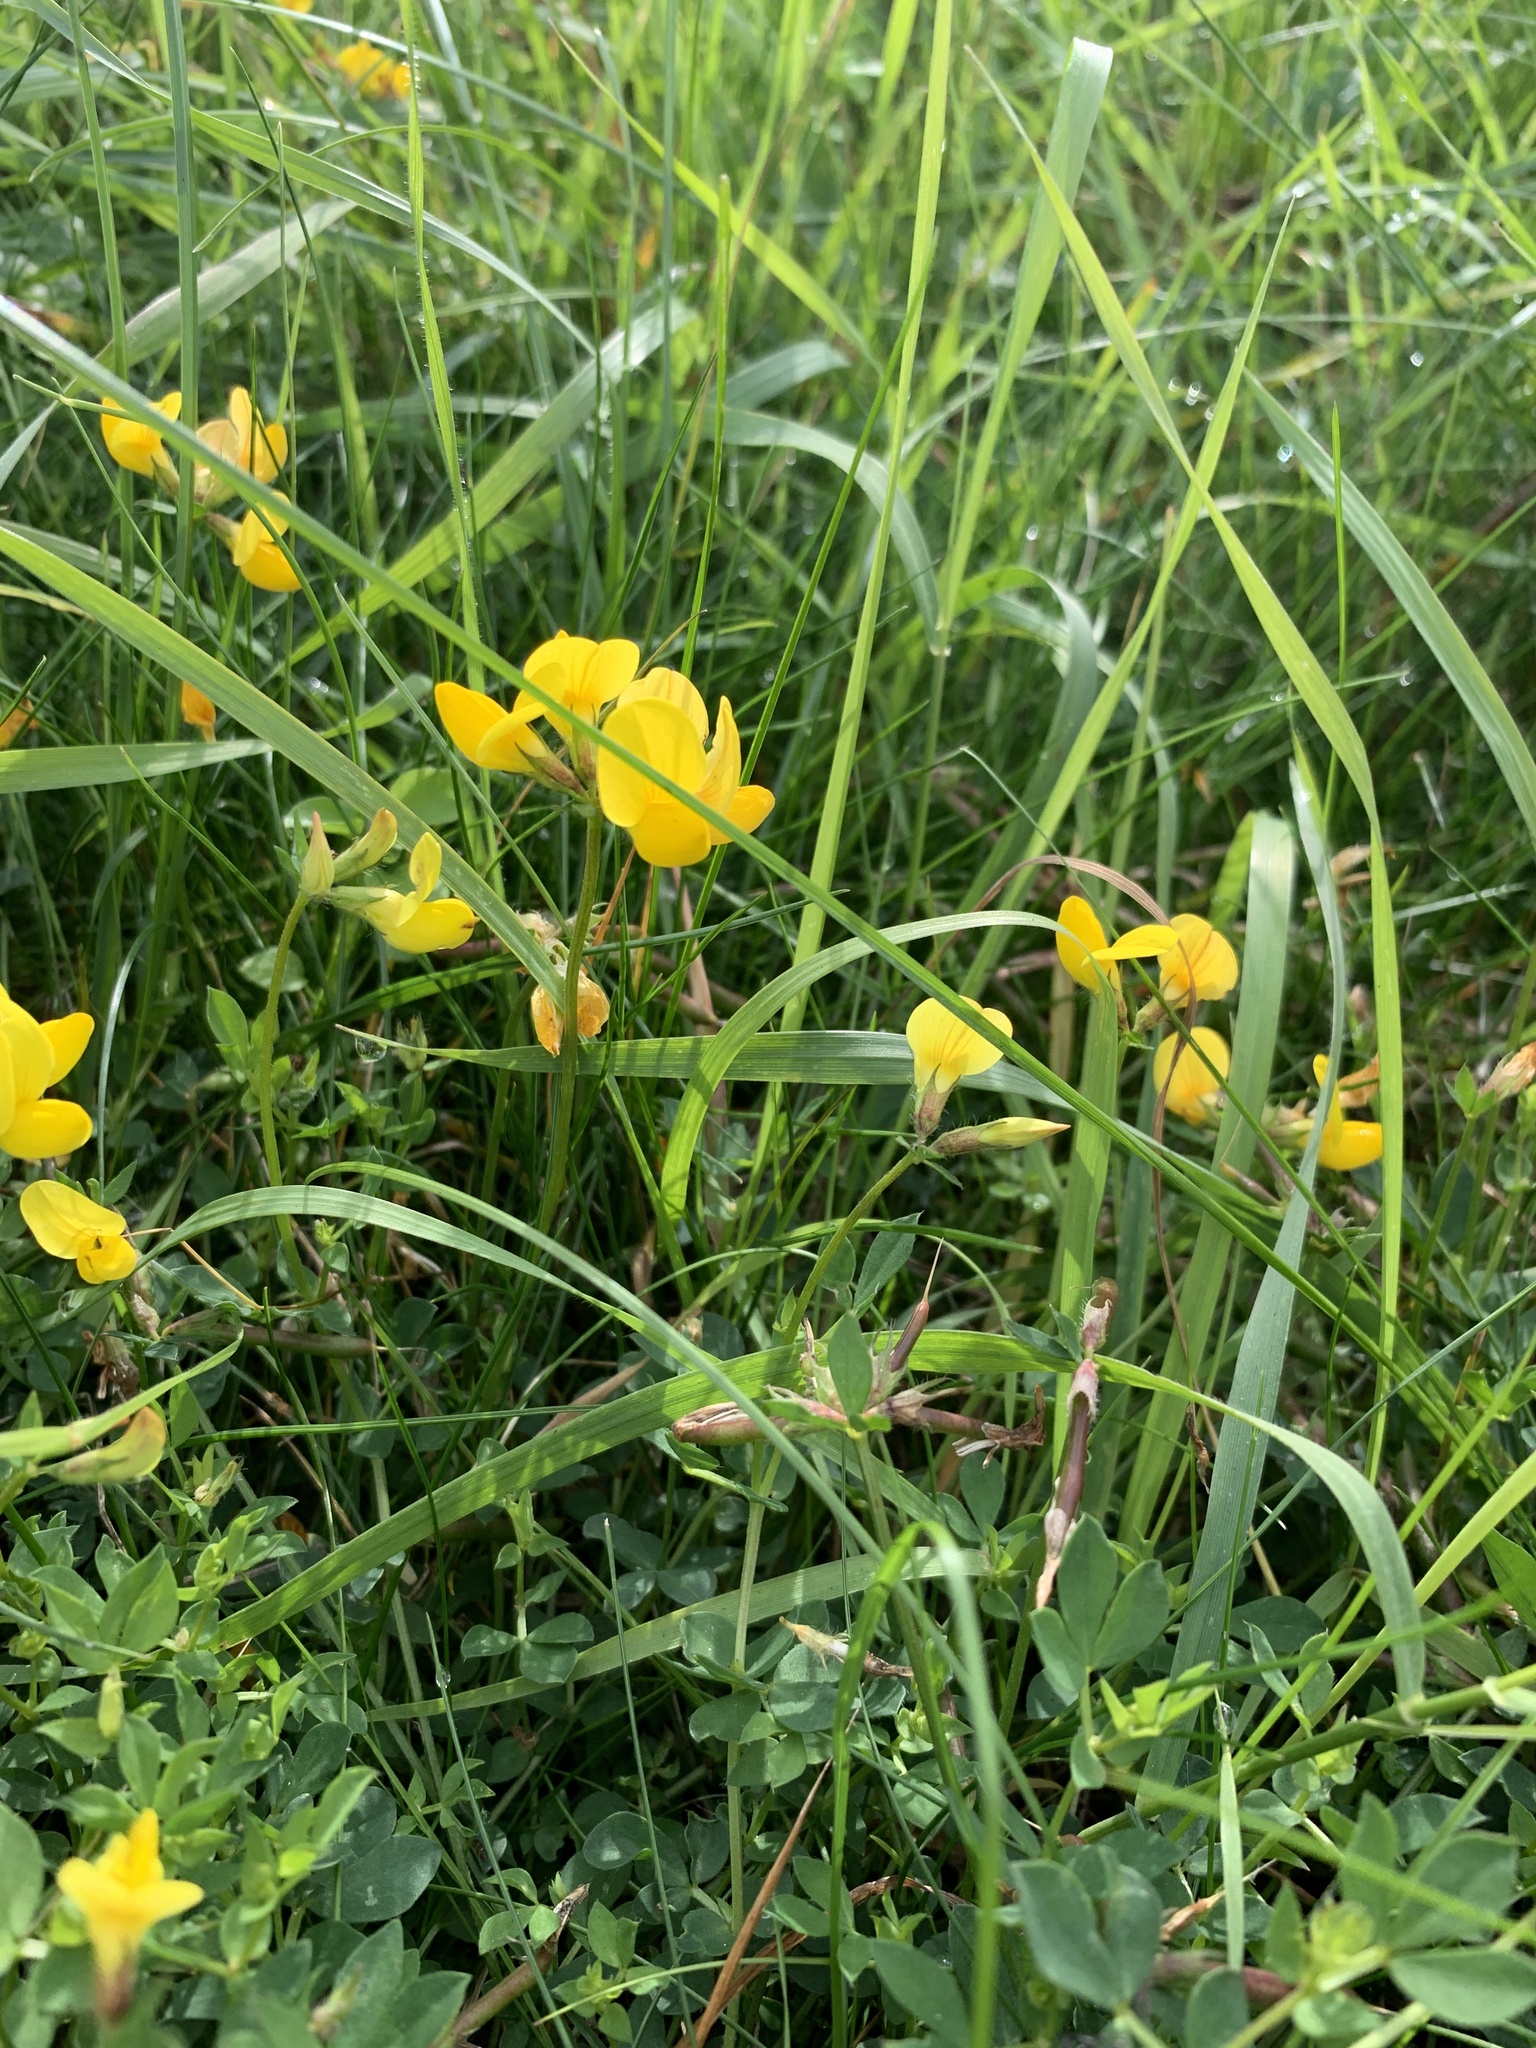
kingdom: Plantae
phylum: Tracheophyta
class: Magnoliopsida
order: Fabales
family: Fabaceae
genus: Lotus
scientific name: Lotus corniculatus
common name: Common bird's-foot-trefoil
